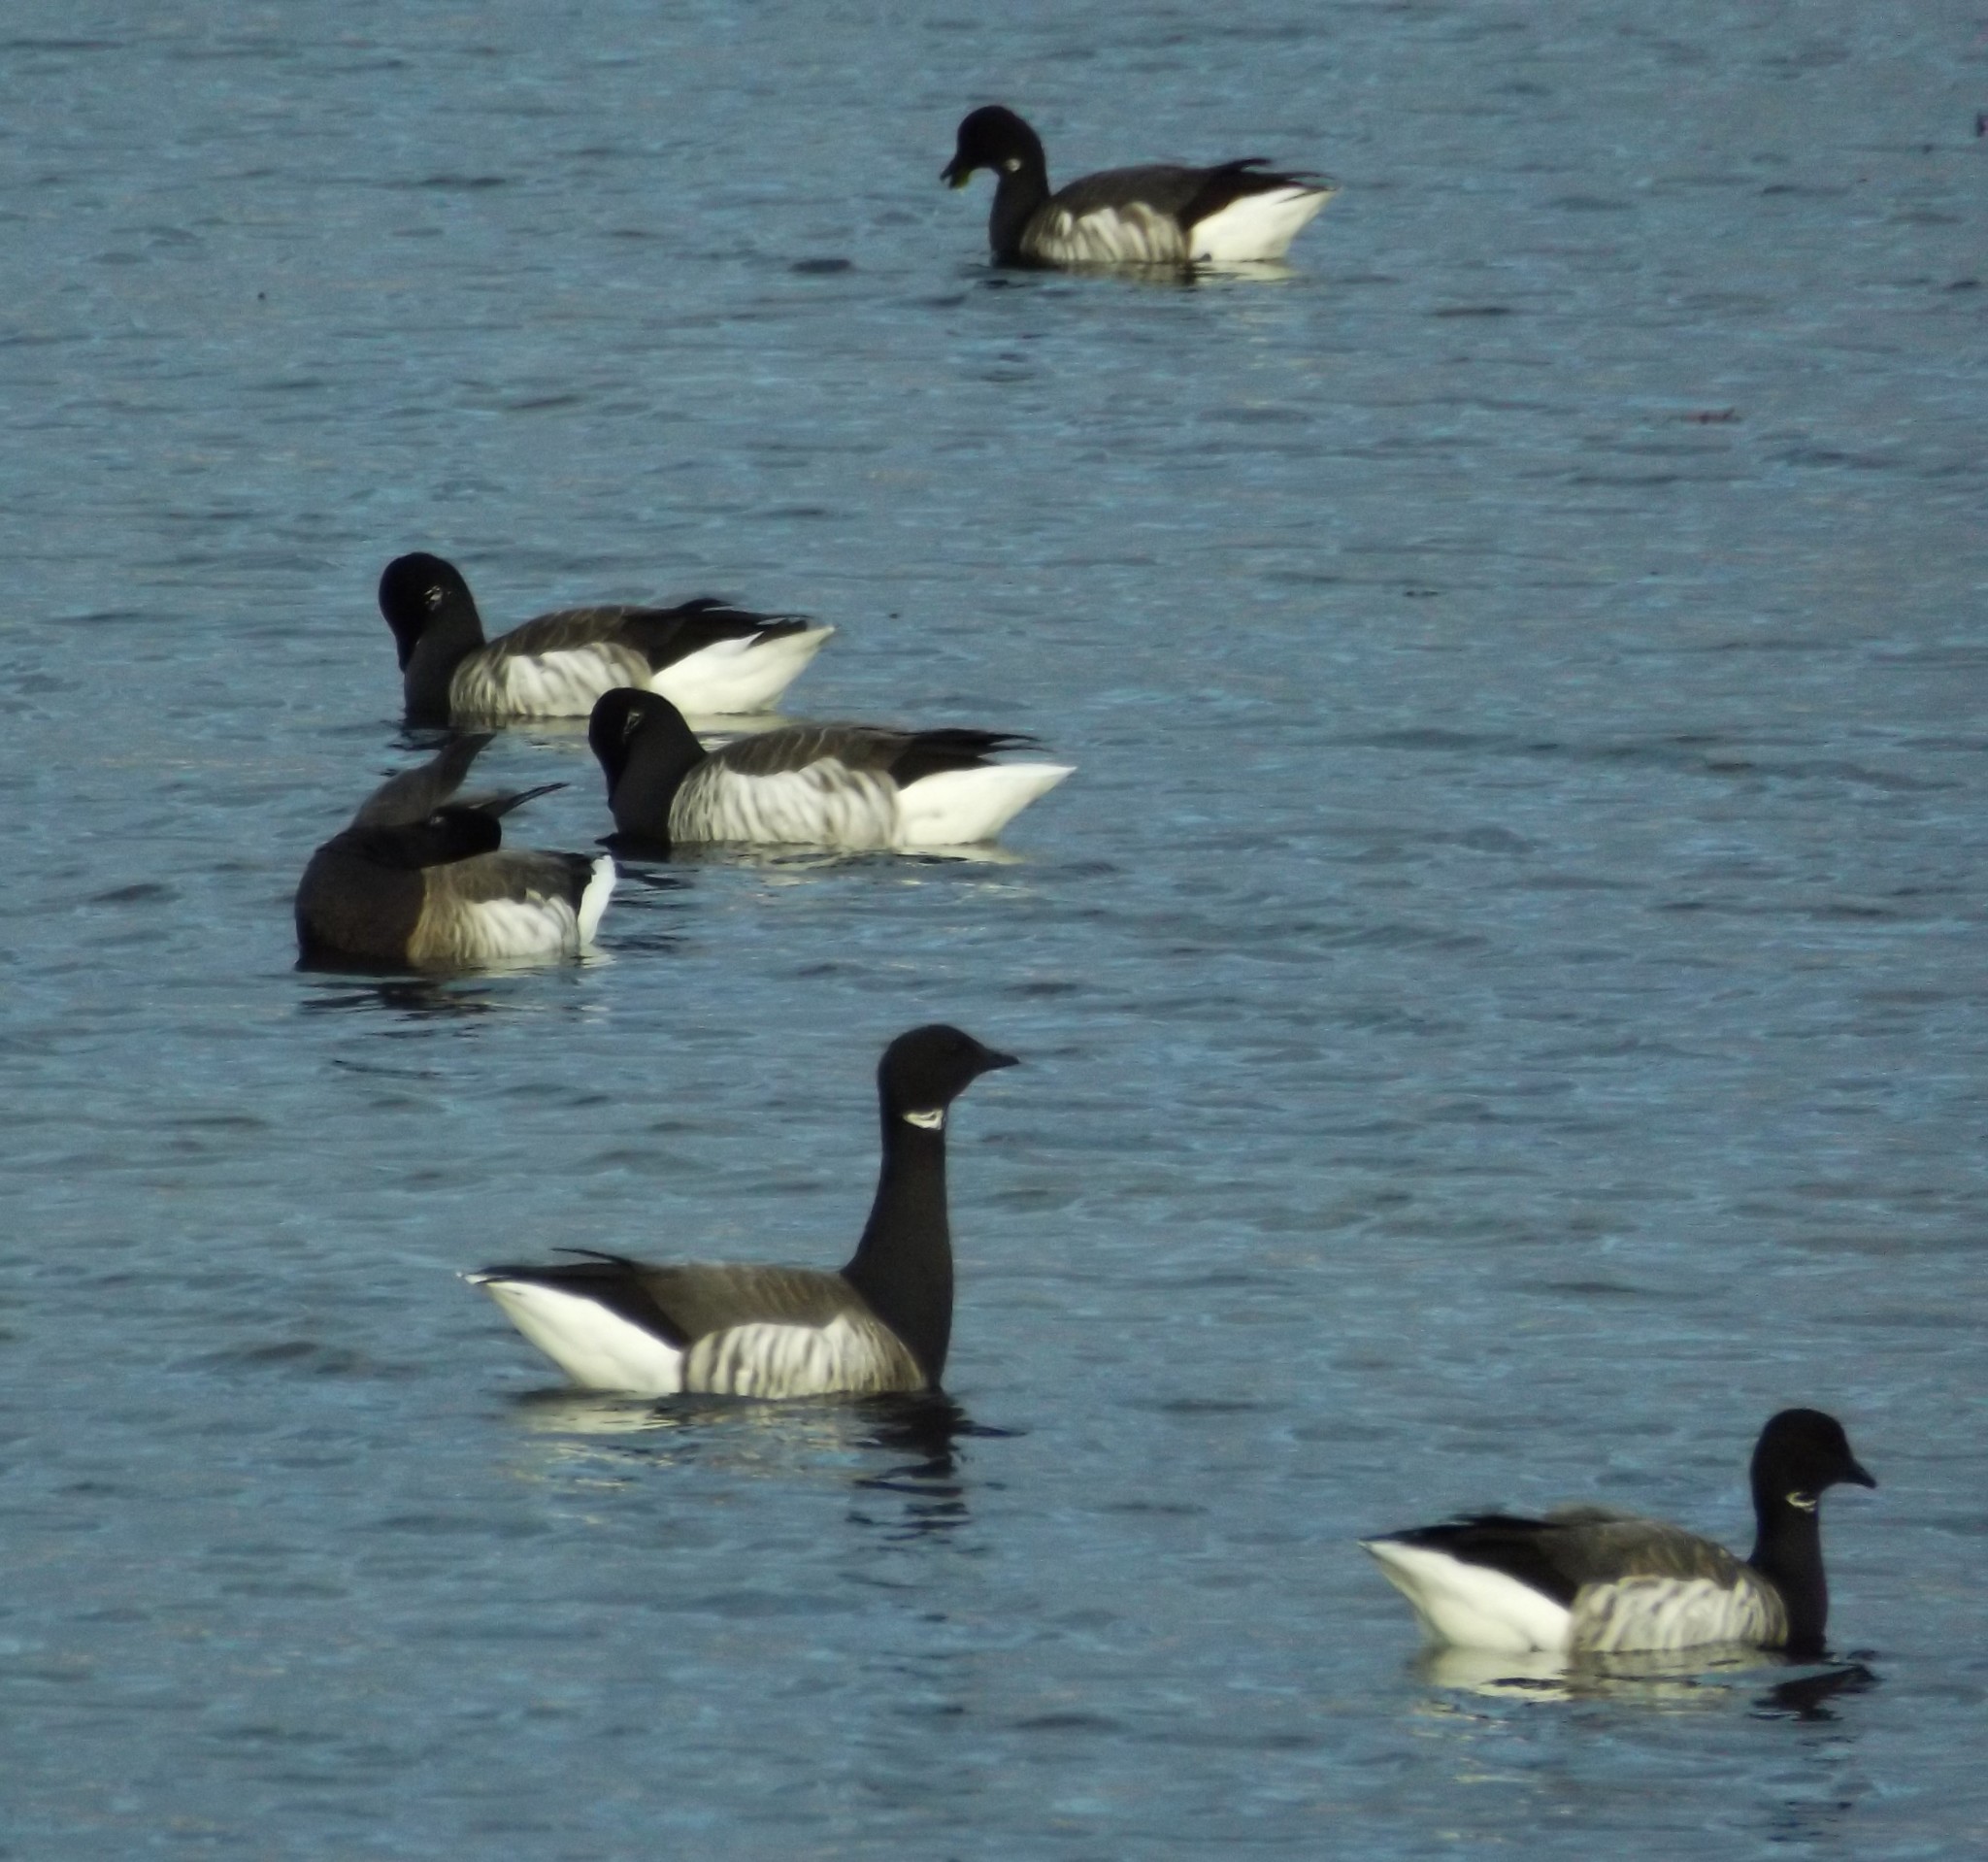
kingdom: Animalia
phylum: Chordata
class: Aves
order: Anseriformes
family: Anatidae
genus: Branta
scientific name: Branta bernicla
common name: Brant goose
